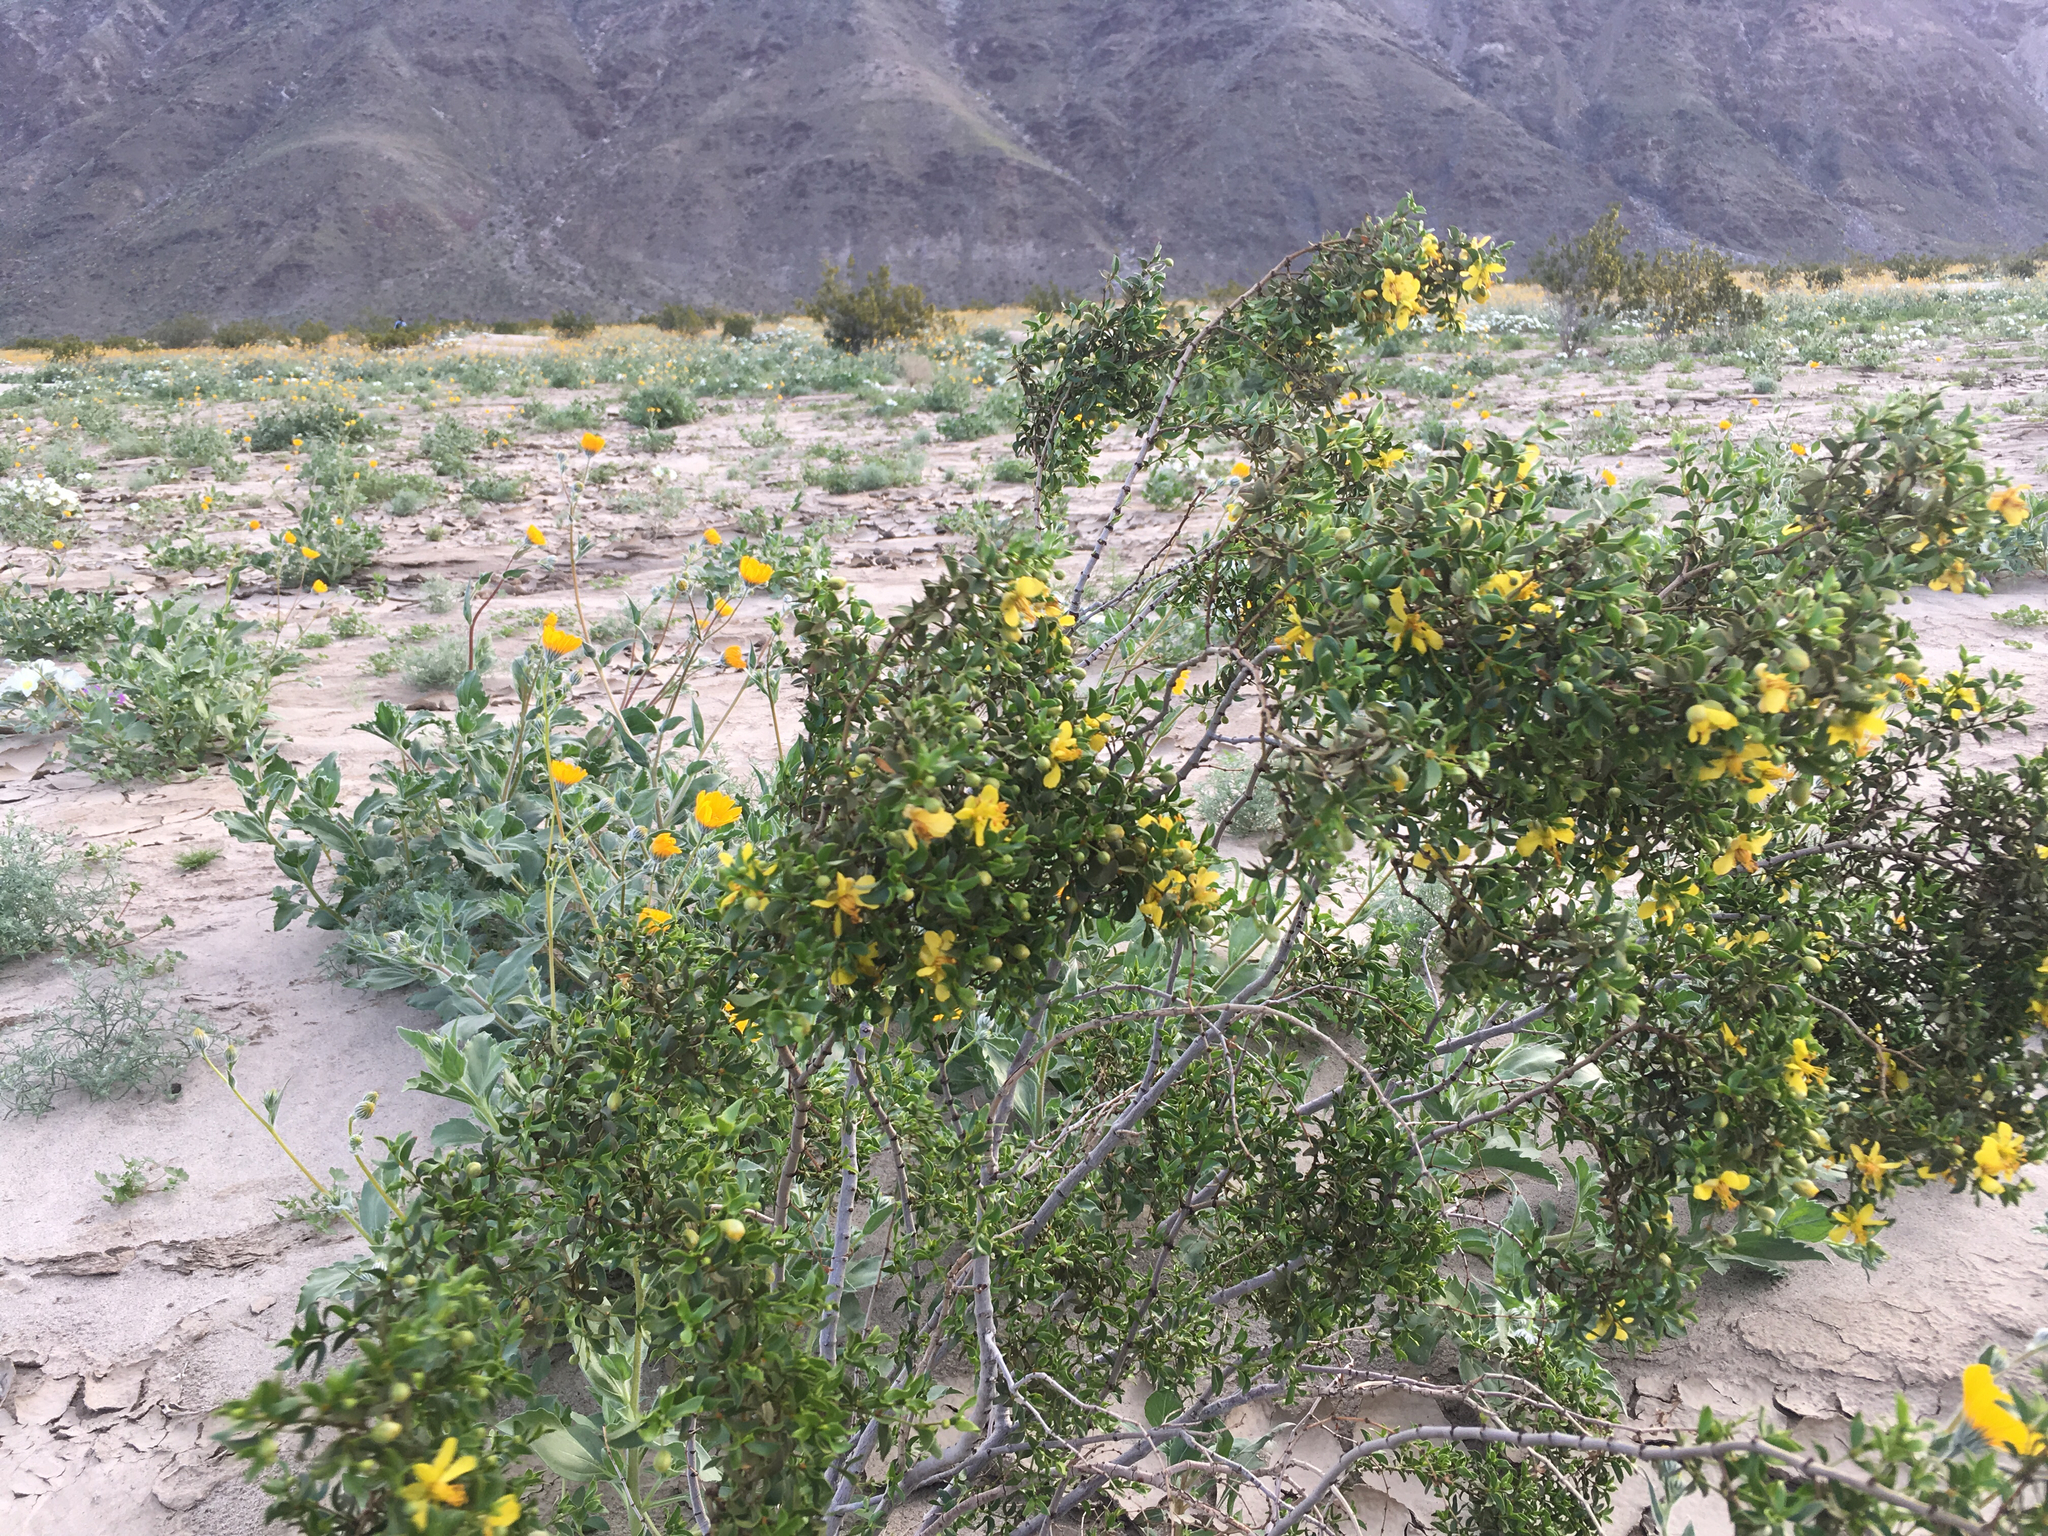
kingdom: Plantae
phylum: Tracheophyta
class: Magnoliopsida
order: Zygophyllales
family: Zygophyllaceae
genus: Larrea
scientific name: Larrea tridentata
